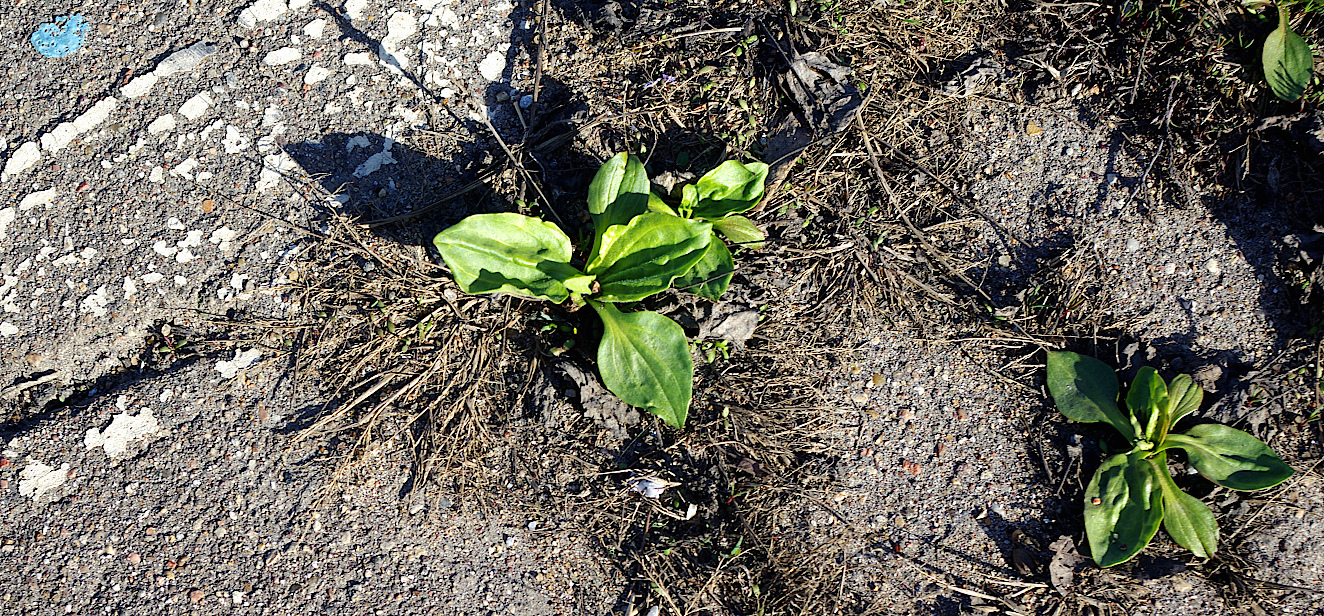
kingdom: Plantae
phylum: Tracheophyta
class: Magnoliopsida
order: Lamiales
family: Plantaginaceae
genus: Plantago
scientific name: Plantago major
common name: Common plantain
